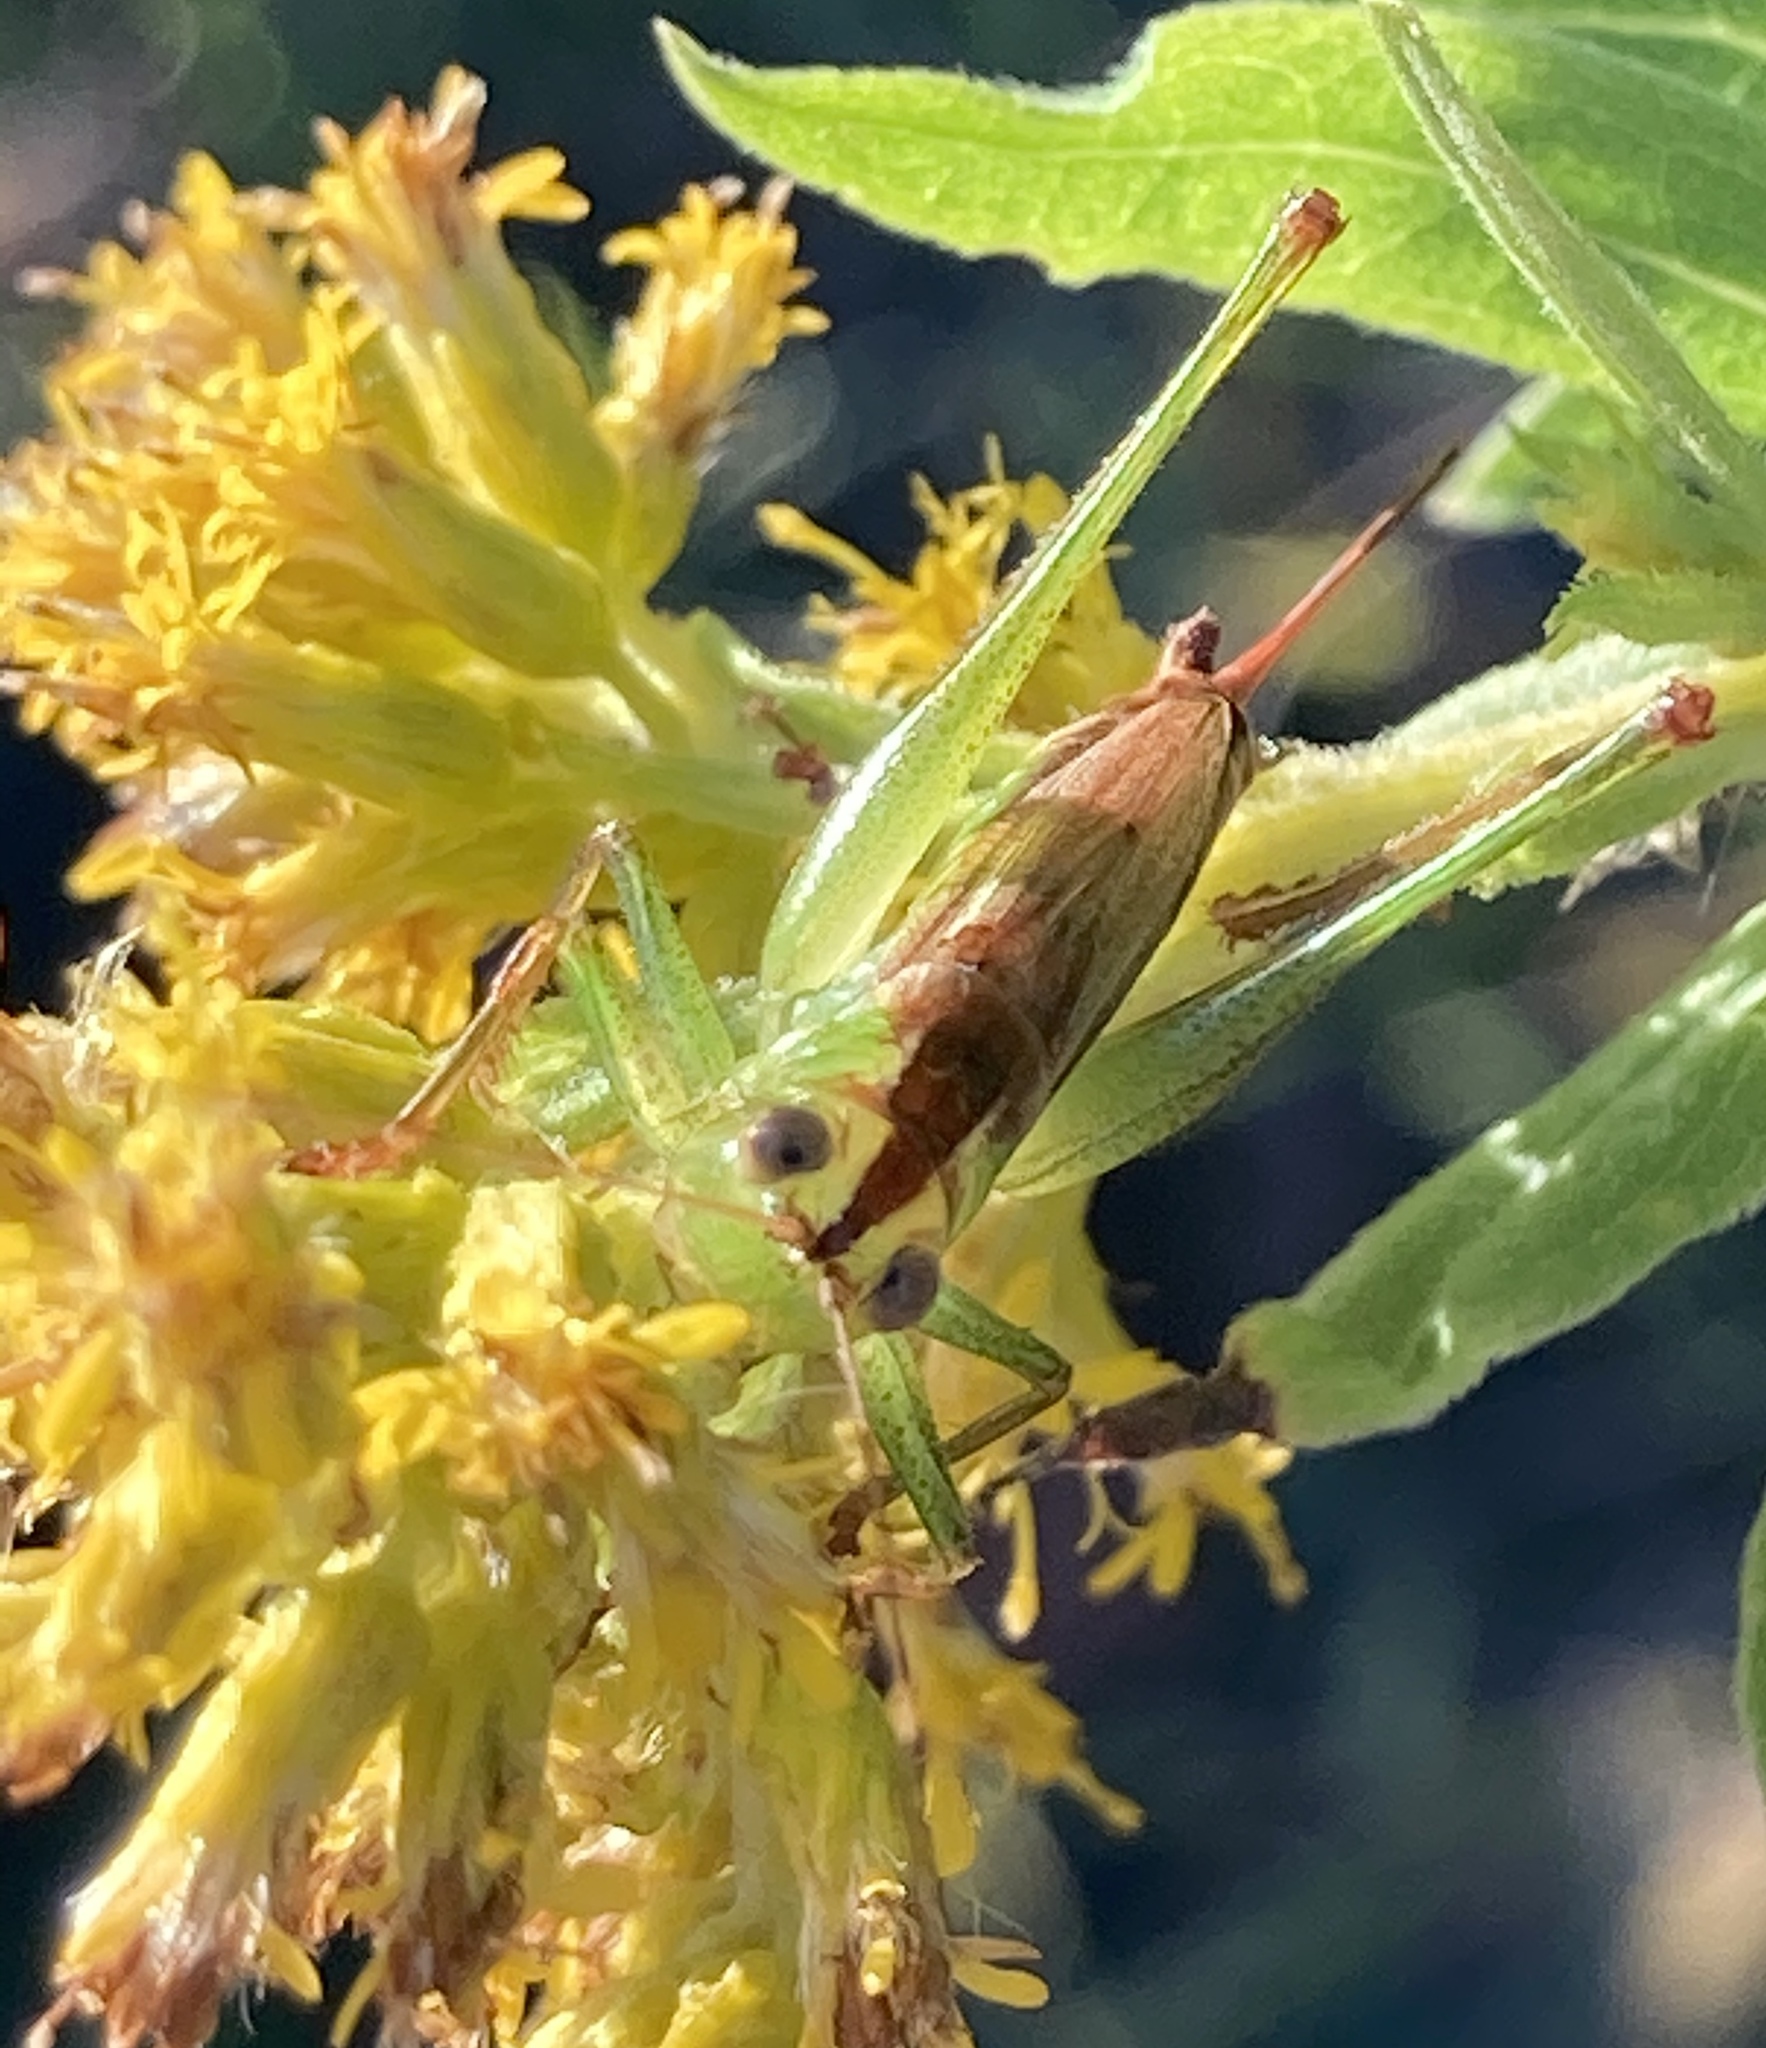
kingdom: Animalia
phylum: Arthropoda
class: Insecta
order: Orthoptera
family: Tettigoniidae
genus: Conocephalus
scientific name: Conocephalus brevipennis
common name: Short-winged meadow katydid
